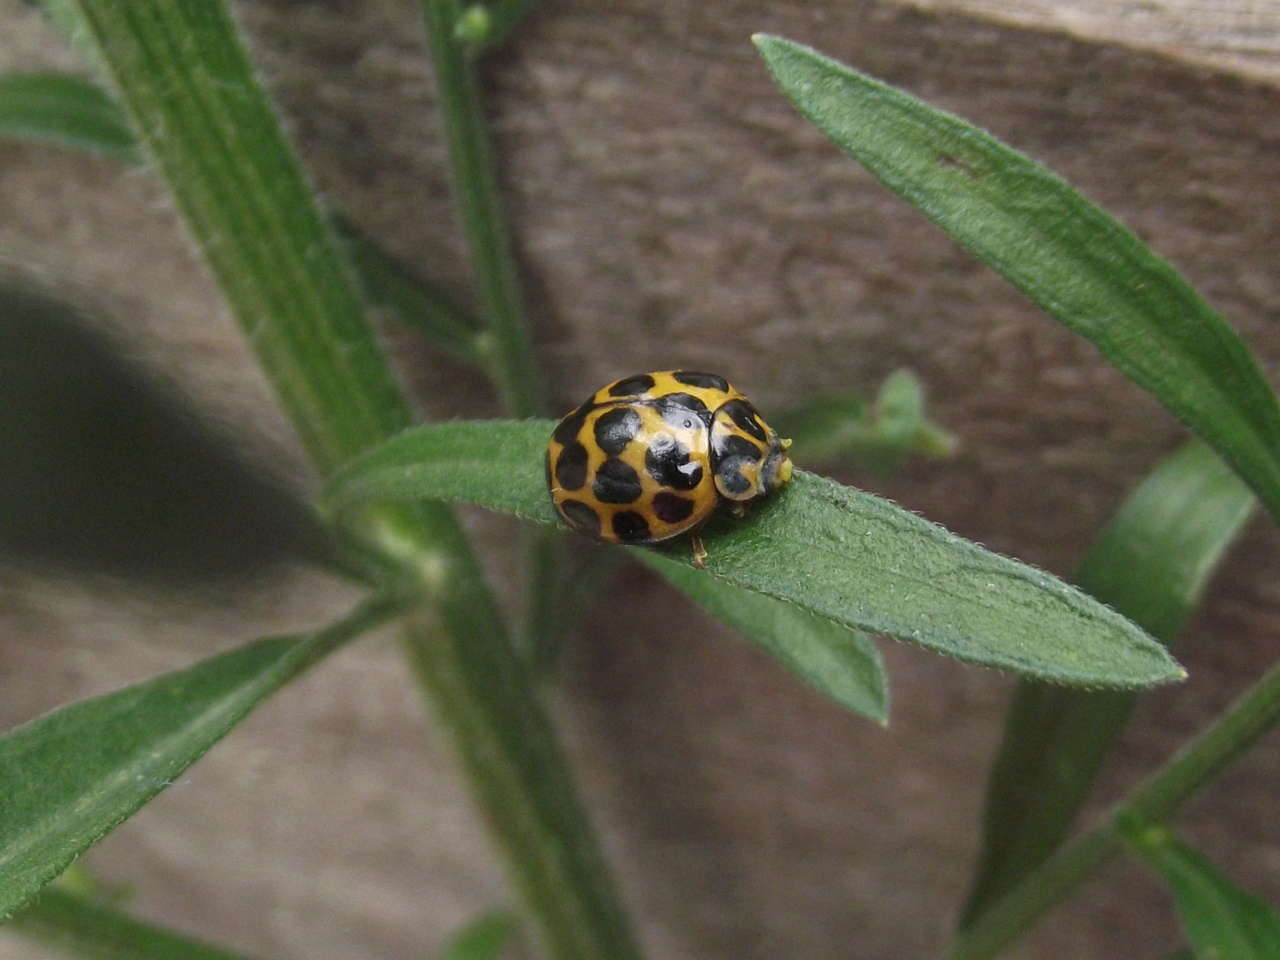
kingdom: Animalia
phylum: Arthropoda
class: Insecta
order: Coleoptera
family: Coccinellidae
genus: Harmonia
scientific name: Harmonia conformis
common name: Common spotted ladybird beetle
